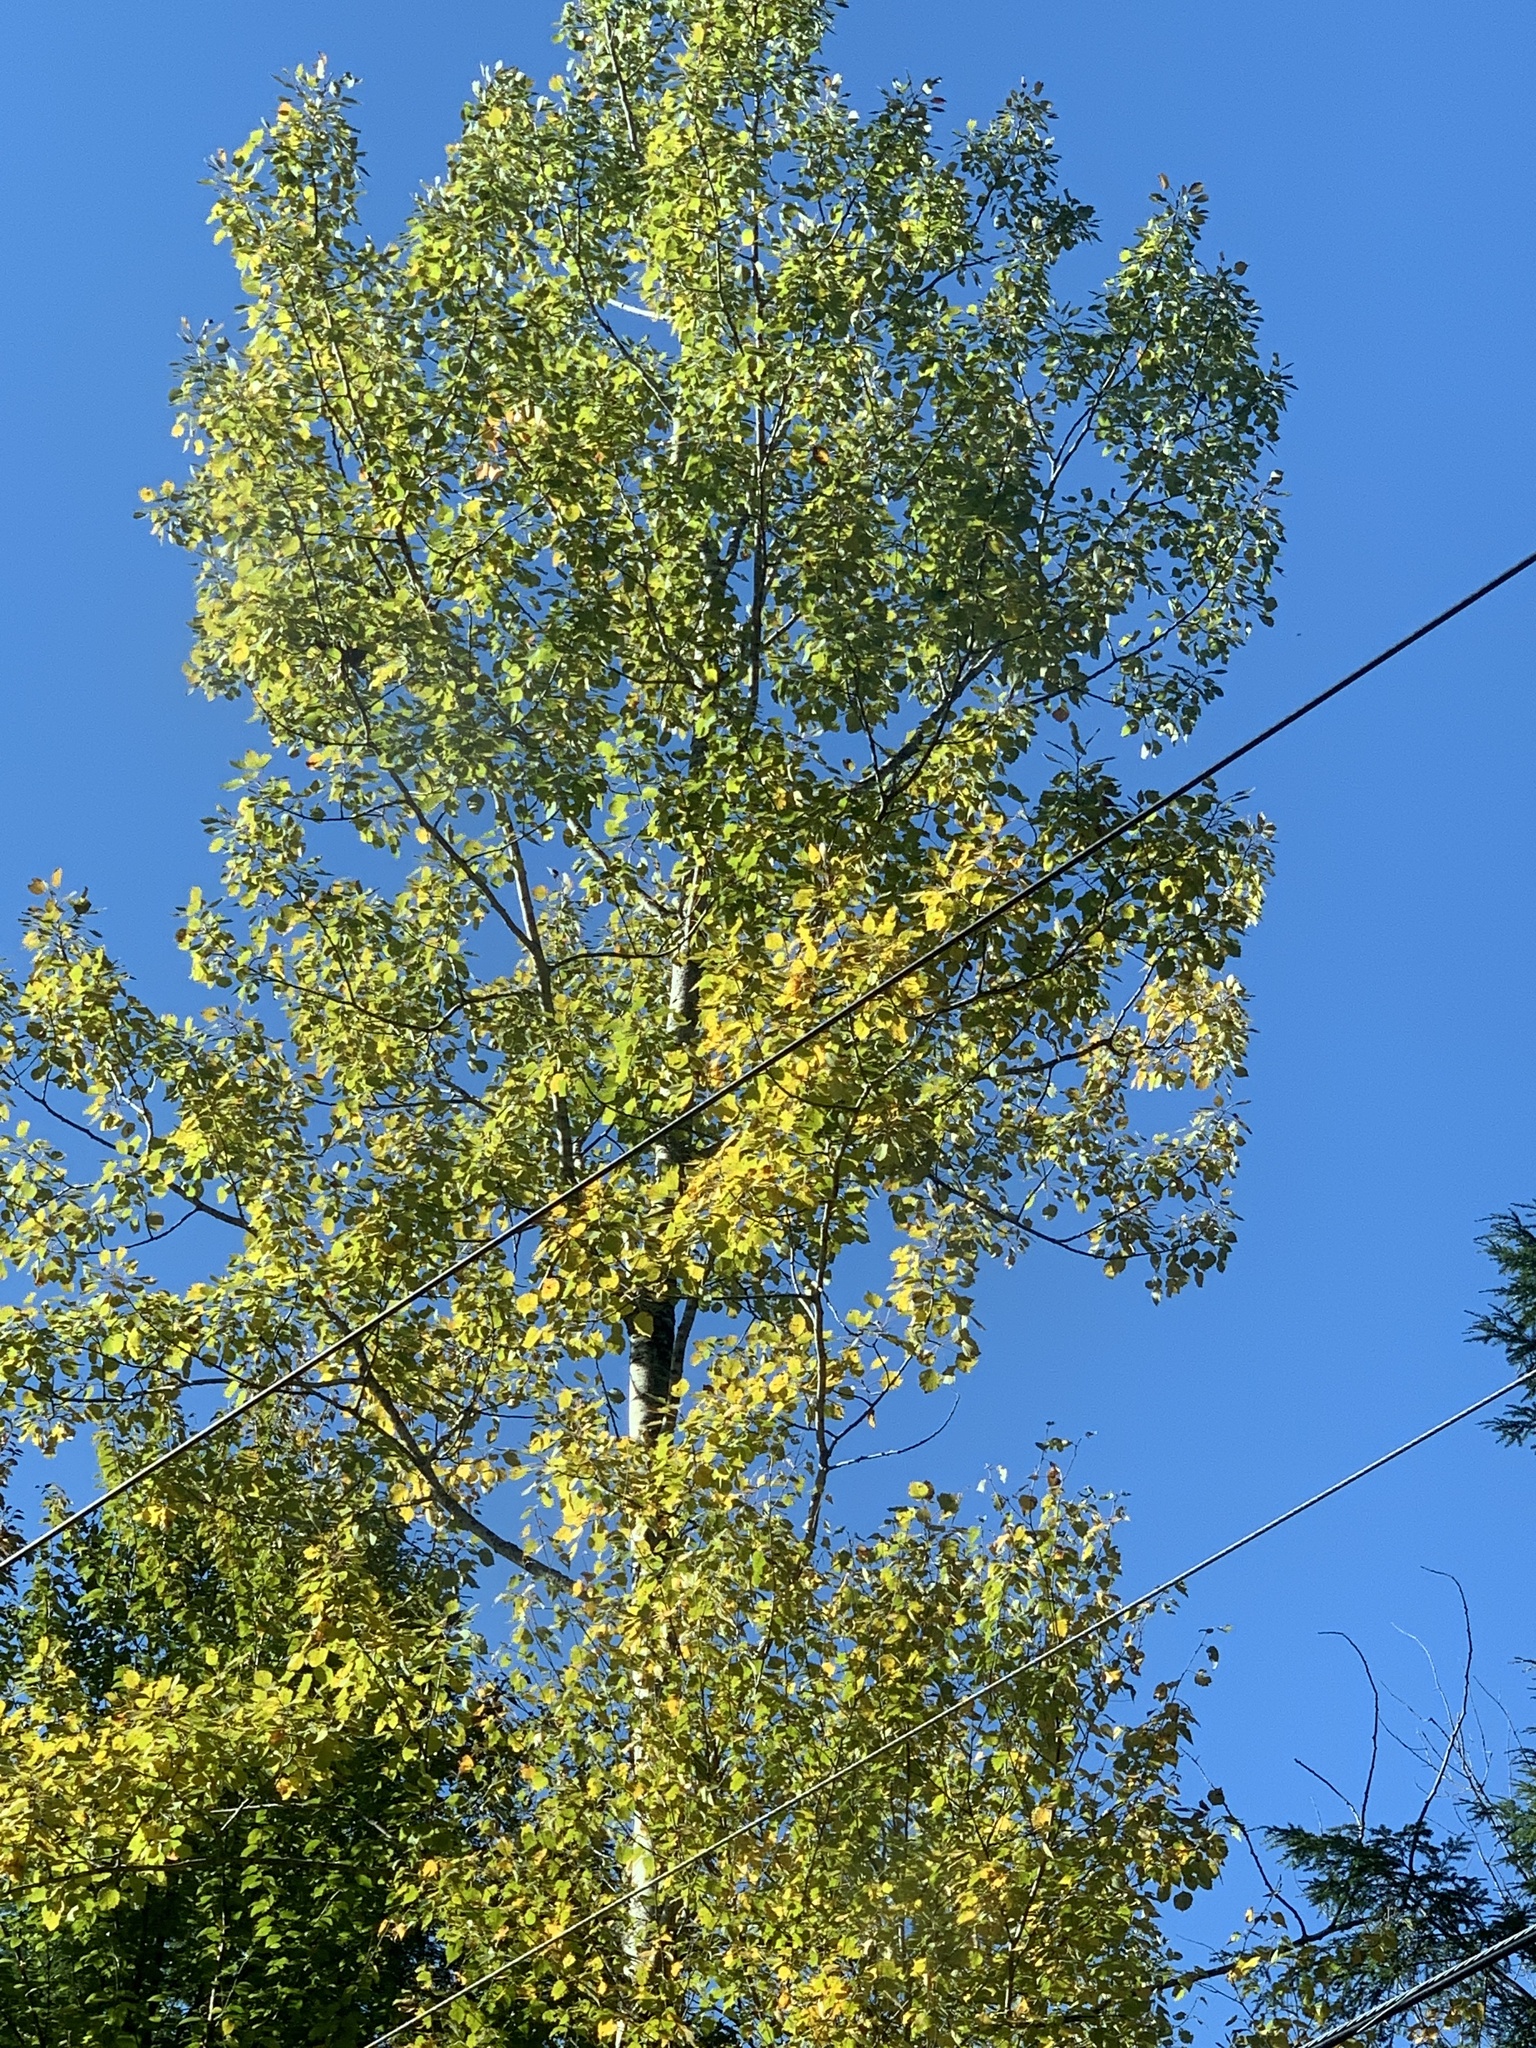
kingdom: Plantae
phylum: Tracheophyta
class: Magnoliopsida
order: Malpighiales
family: Salicaceae
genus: Populus
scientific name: Populus tremuloides
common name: Quaking aspen
